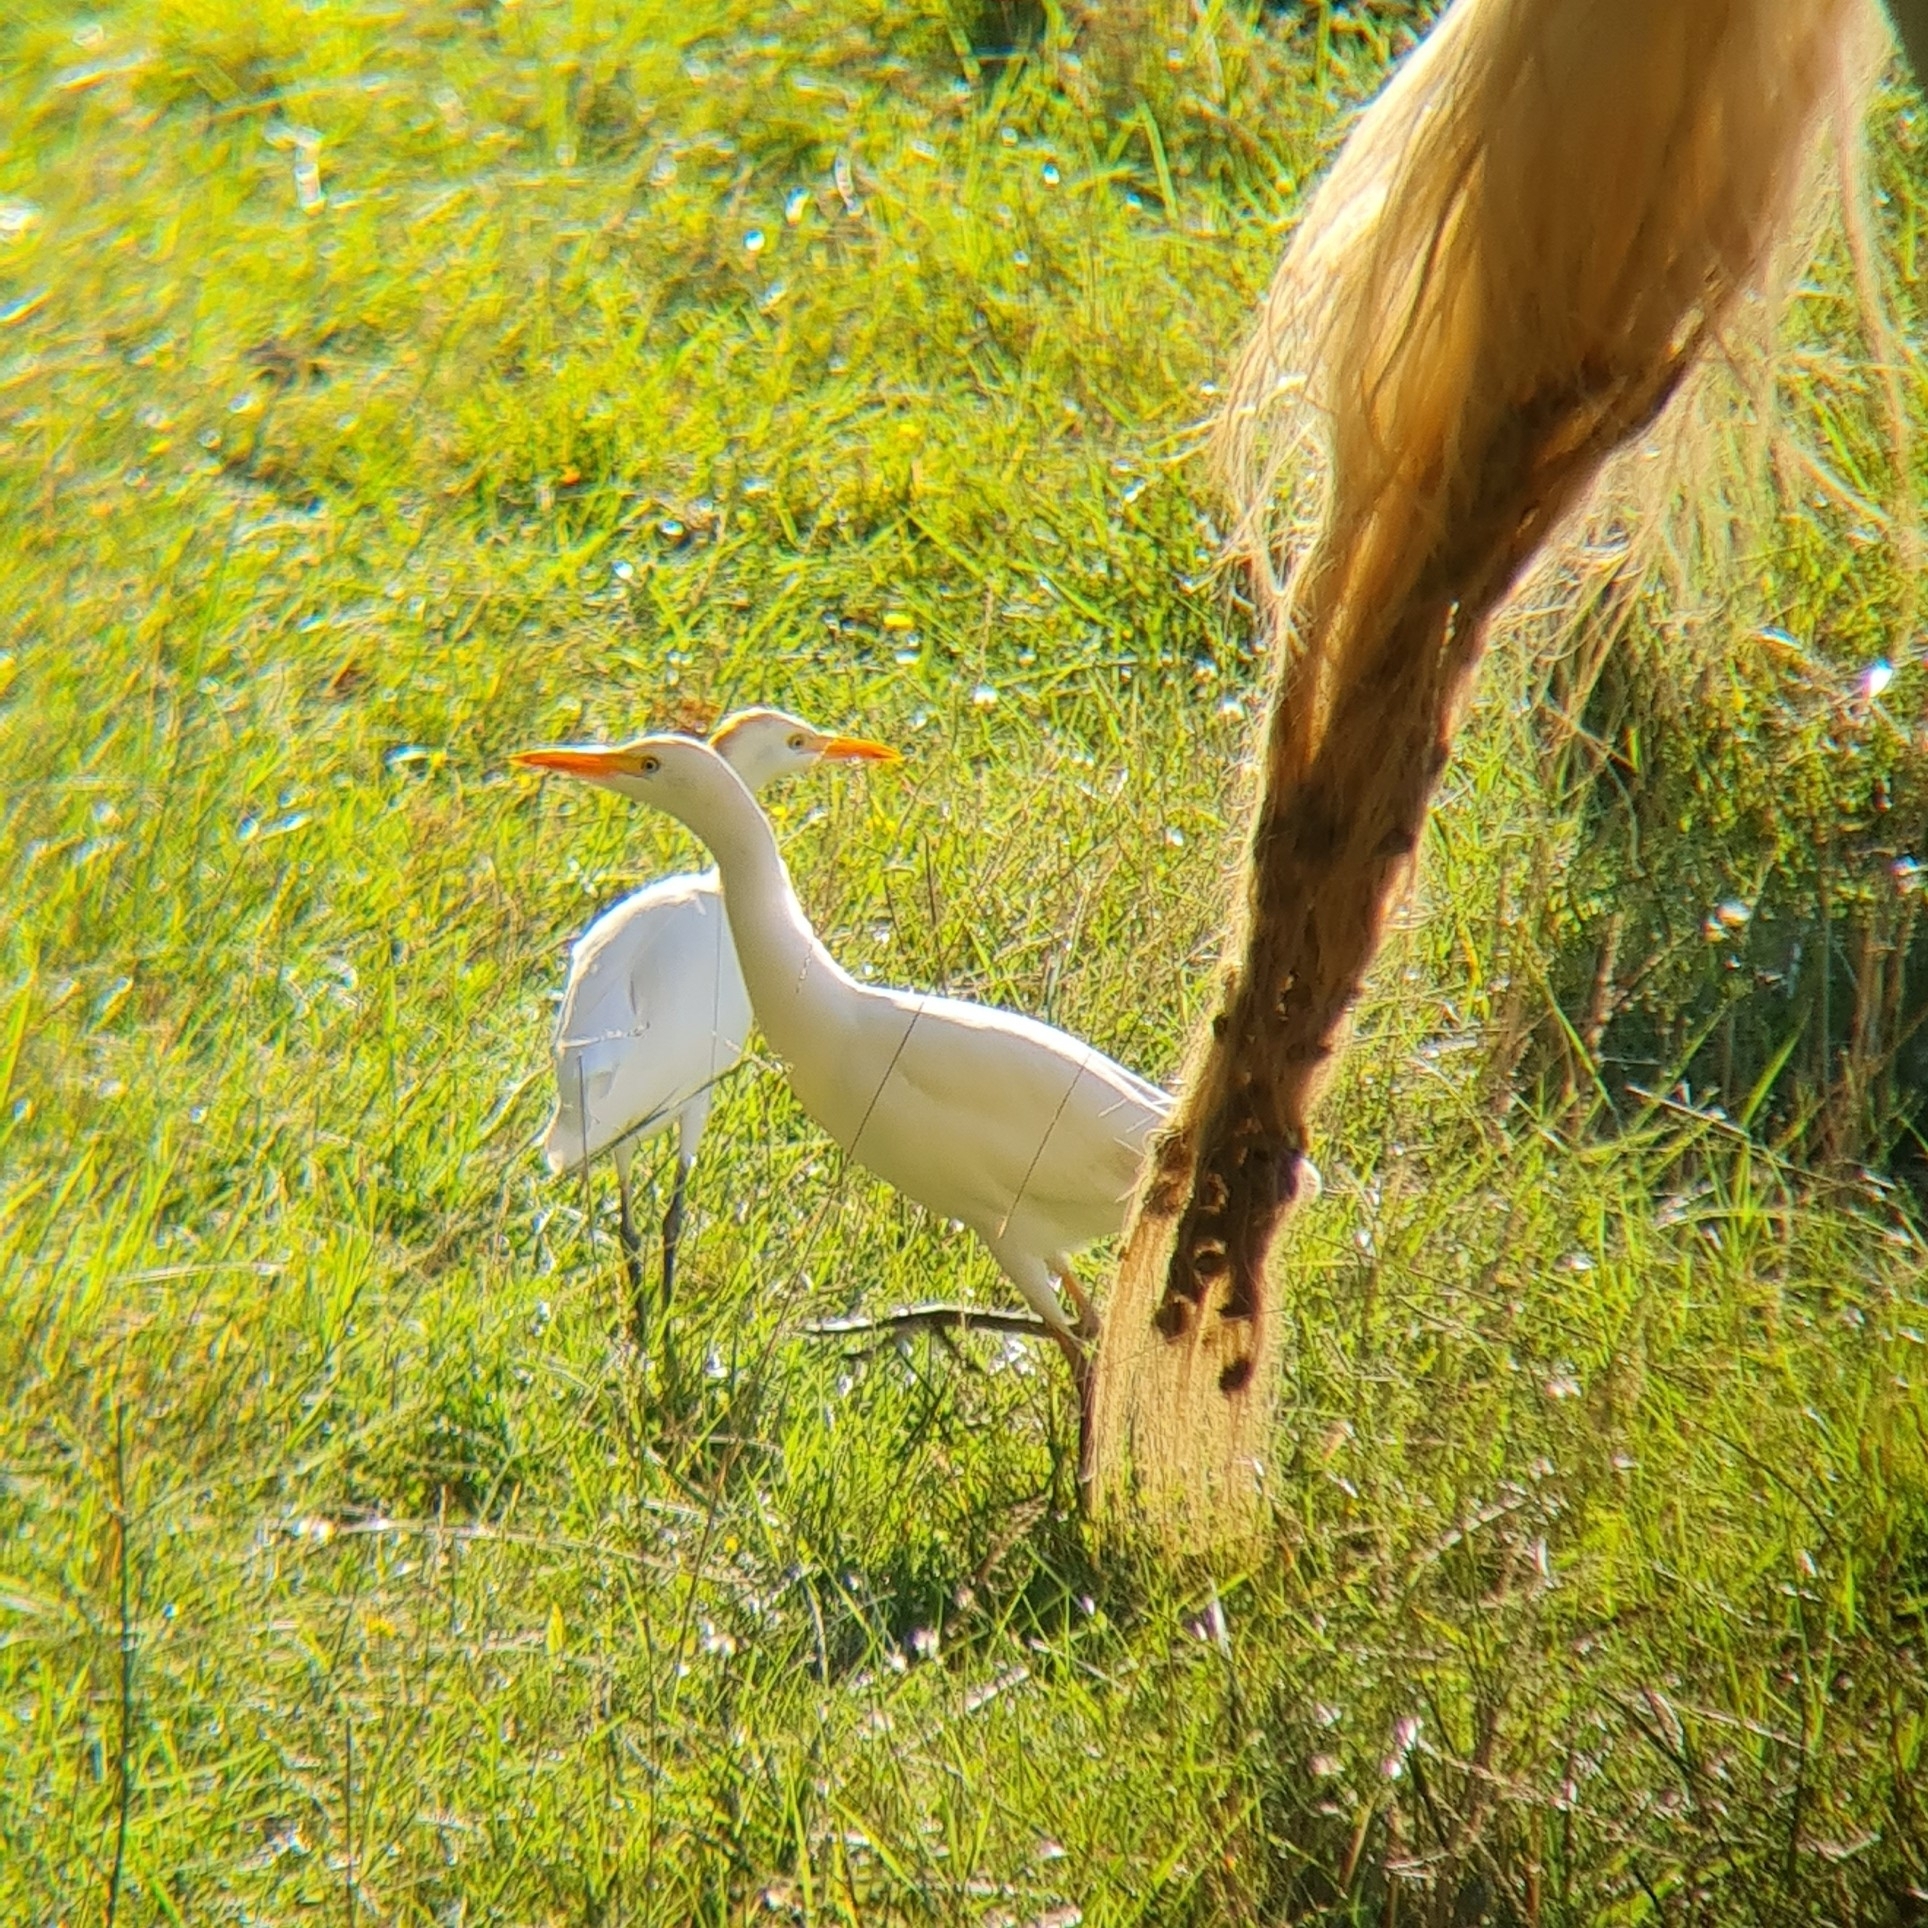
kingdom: Animalia
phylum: Chordata
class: Aves
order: Pelecaniformes
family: Ardeidae
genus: Bubulcus
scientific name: Bubulcus ibis
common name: Cattle egret
